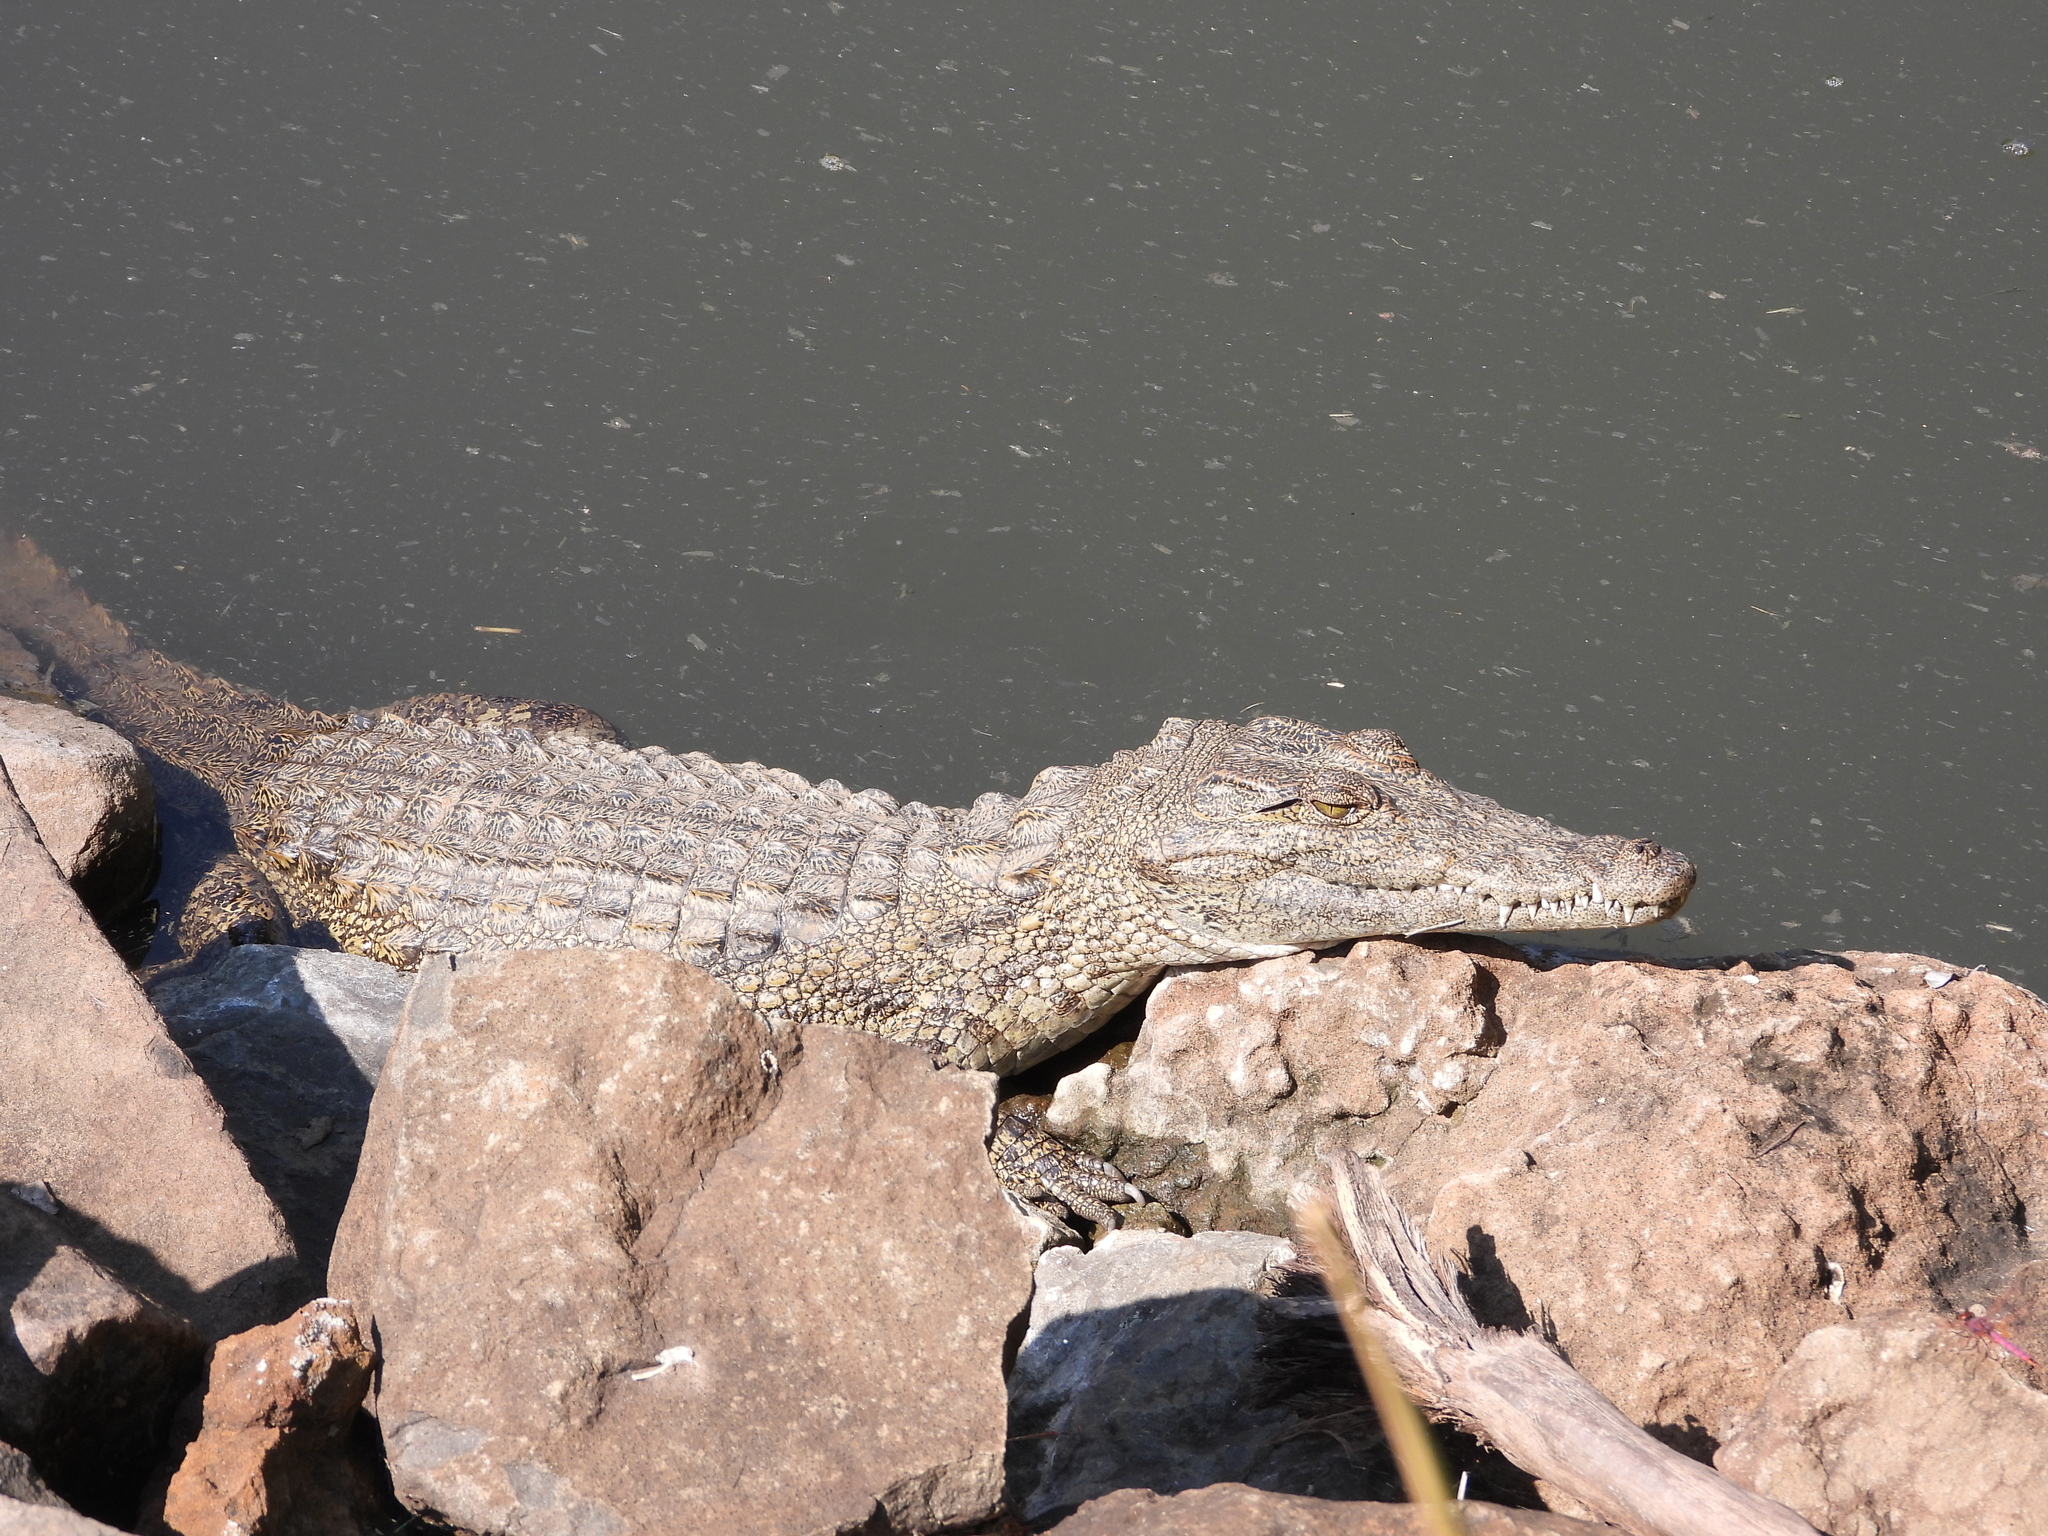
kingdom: Animalia
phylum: Chordata
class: Crocodylia
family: Crocodylidae
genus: Crocodylus
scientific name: Crocodylus niloticus
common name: Nile crocodile
